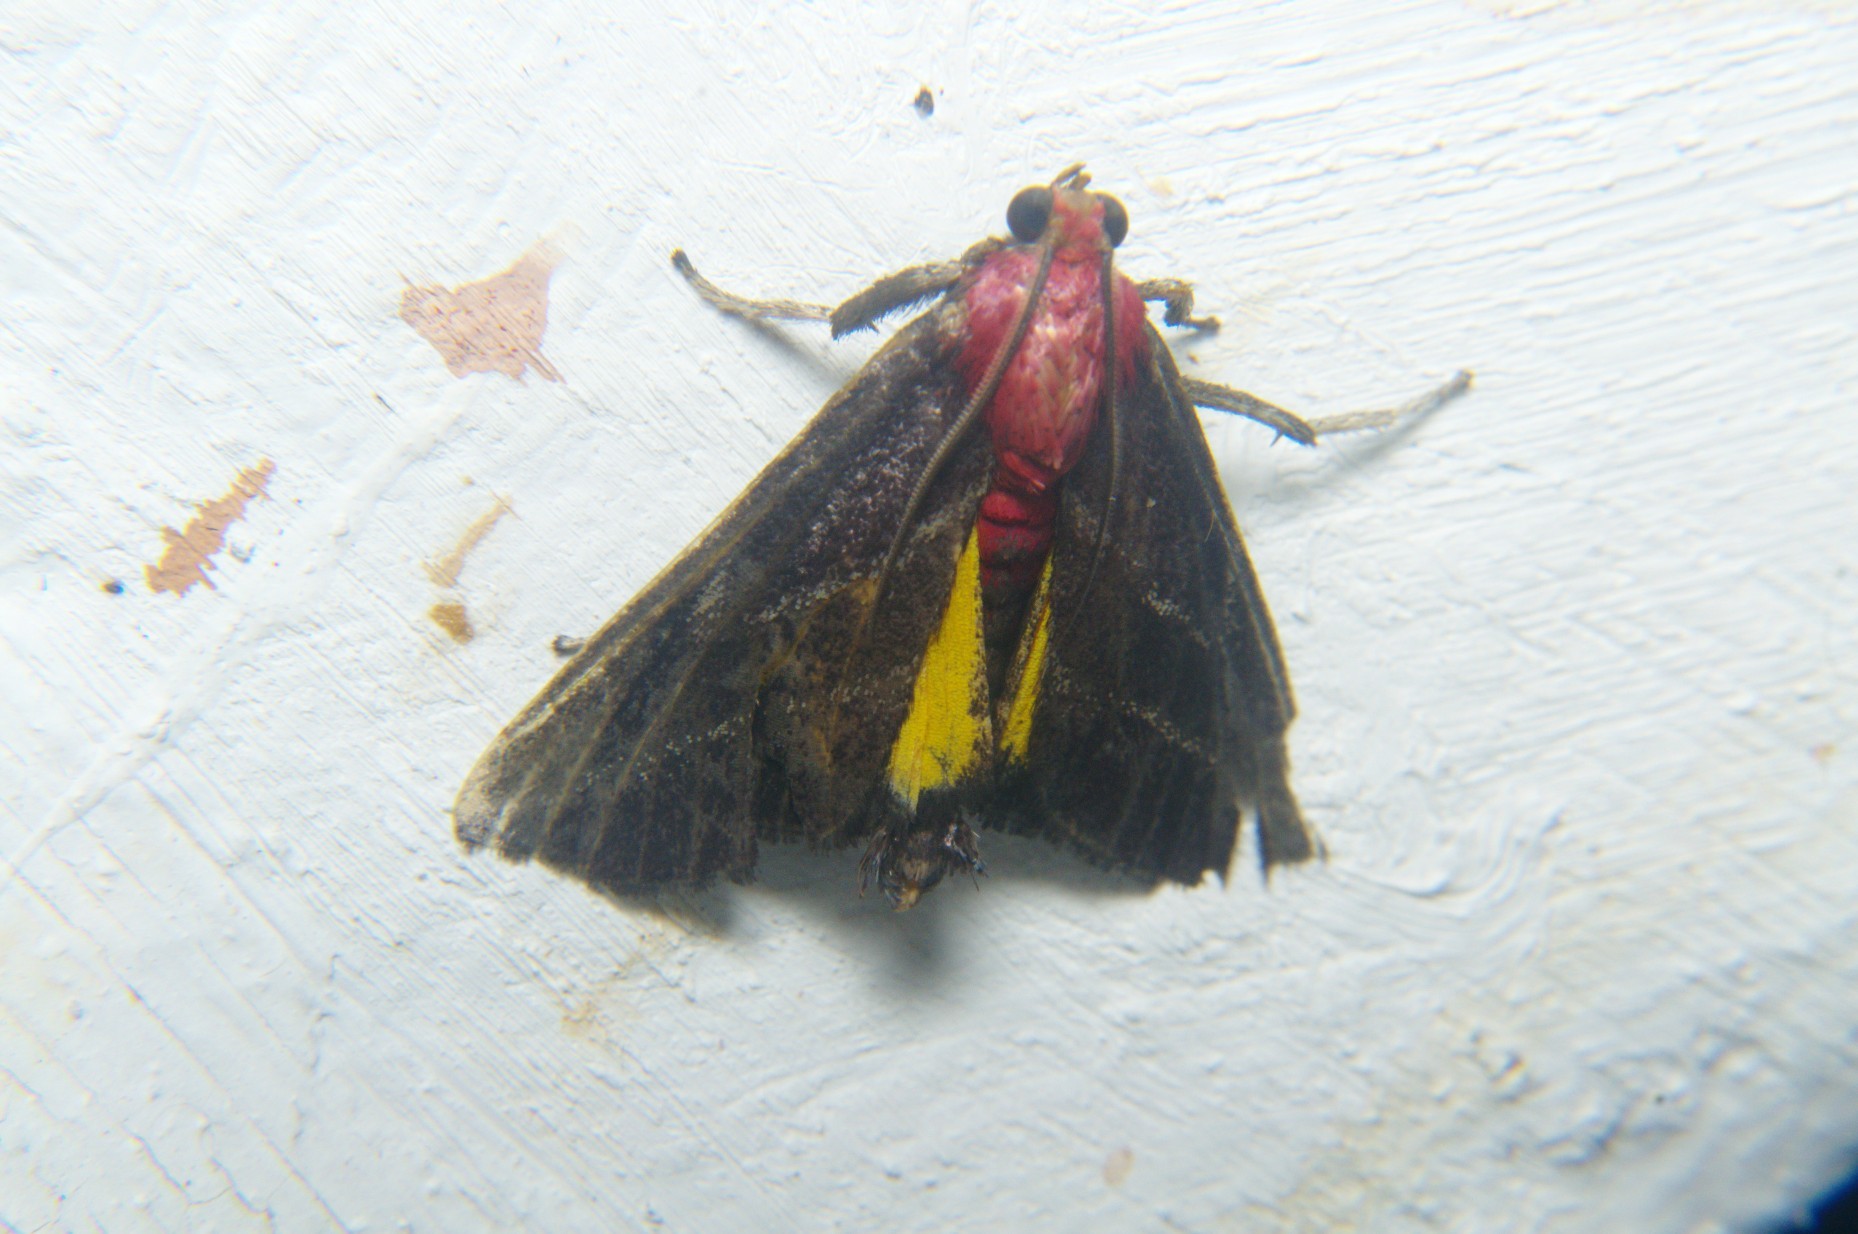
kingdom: Animalia
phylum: Arthropoda
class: Insecta
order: Lepidoptera
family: Pyralidae
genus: Toccolosida
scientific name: Toccolosida rubriceps
